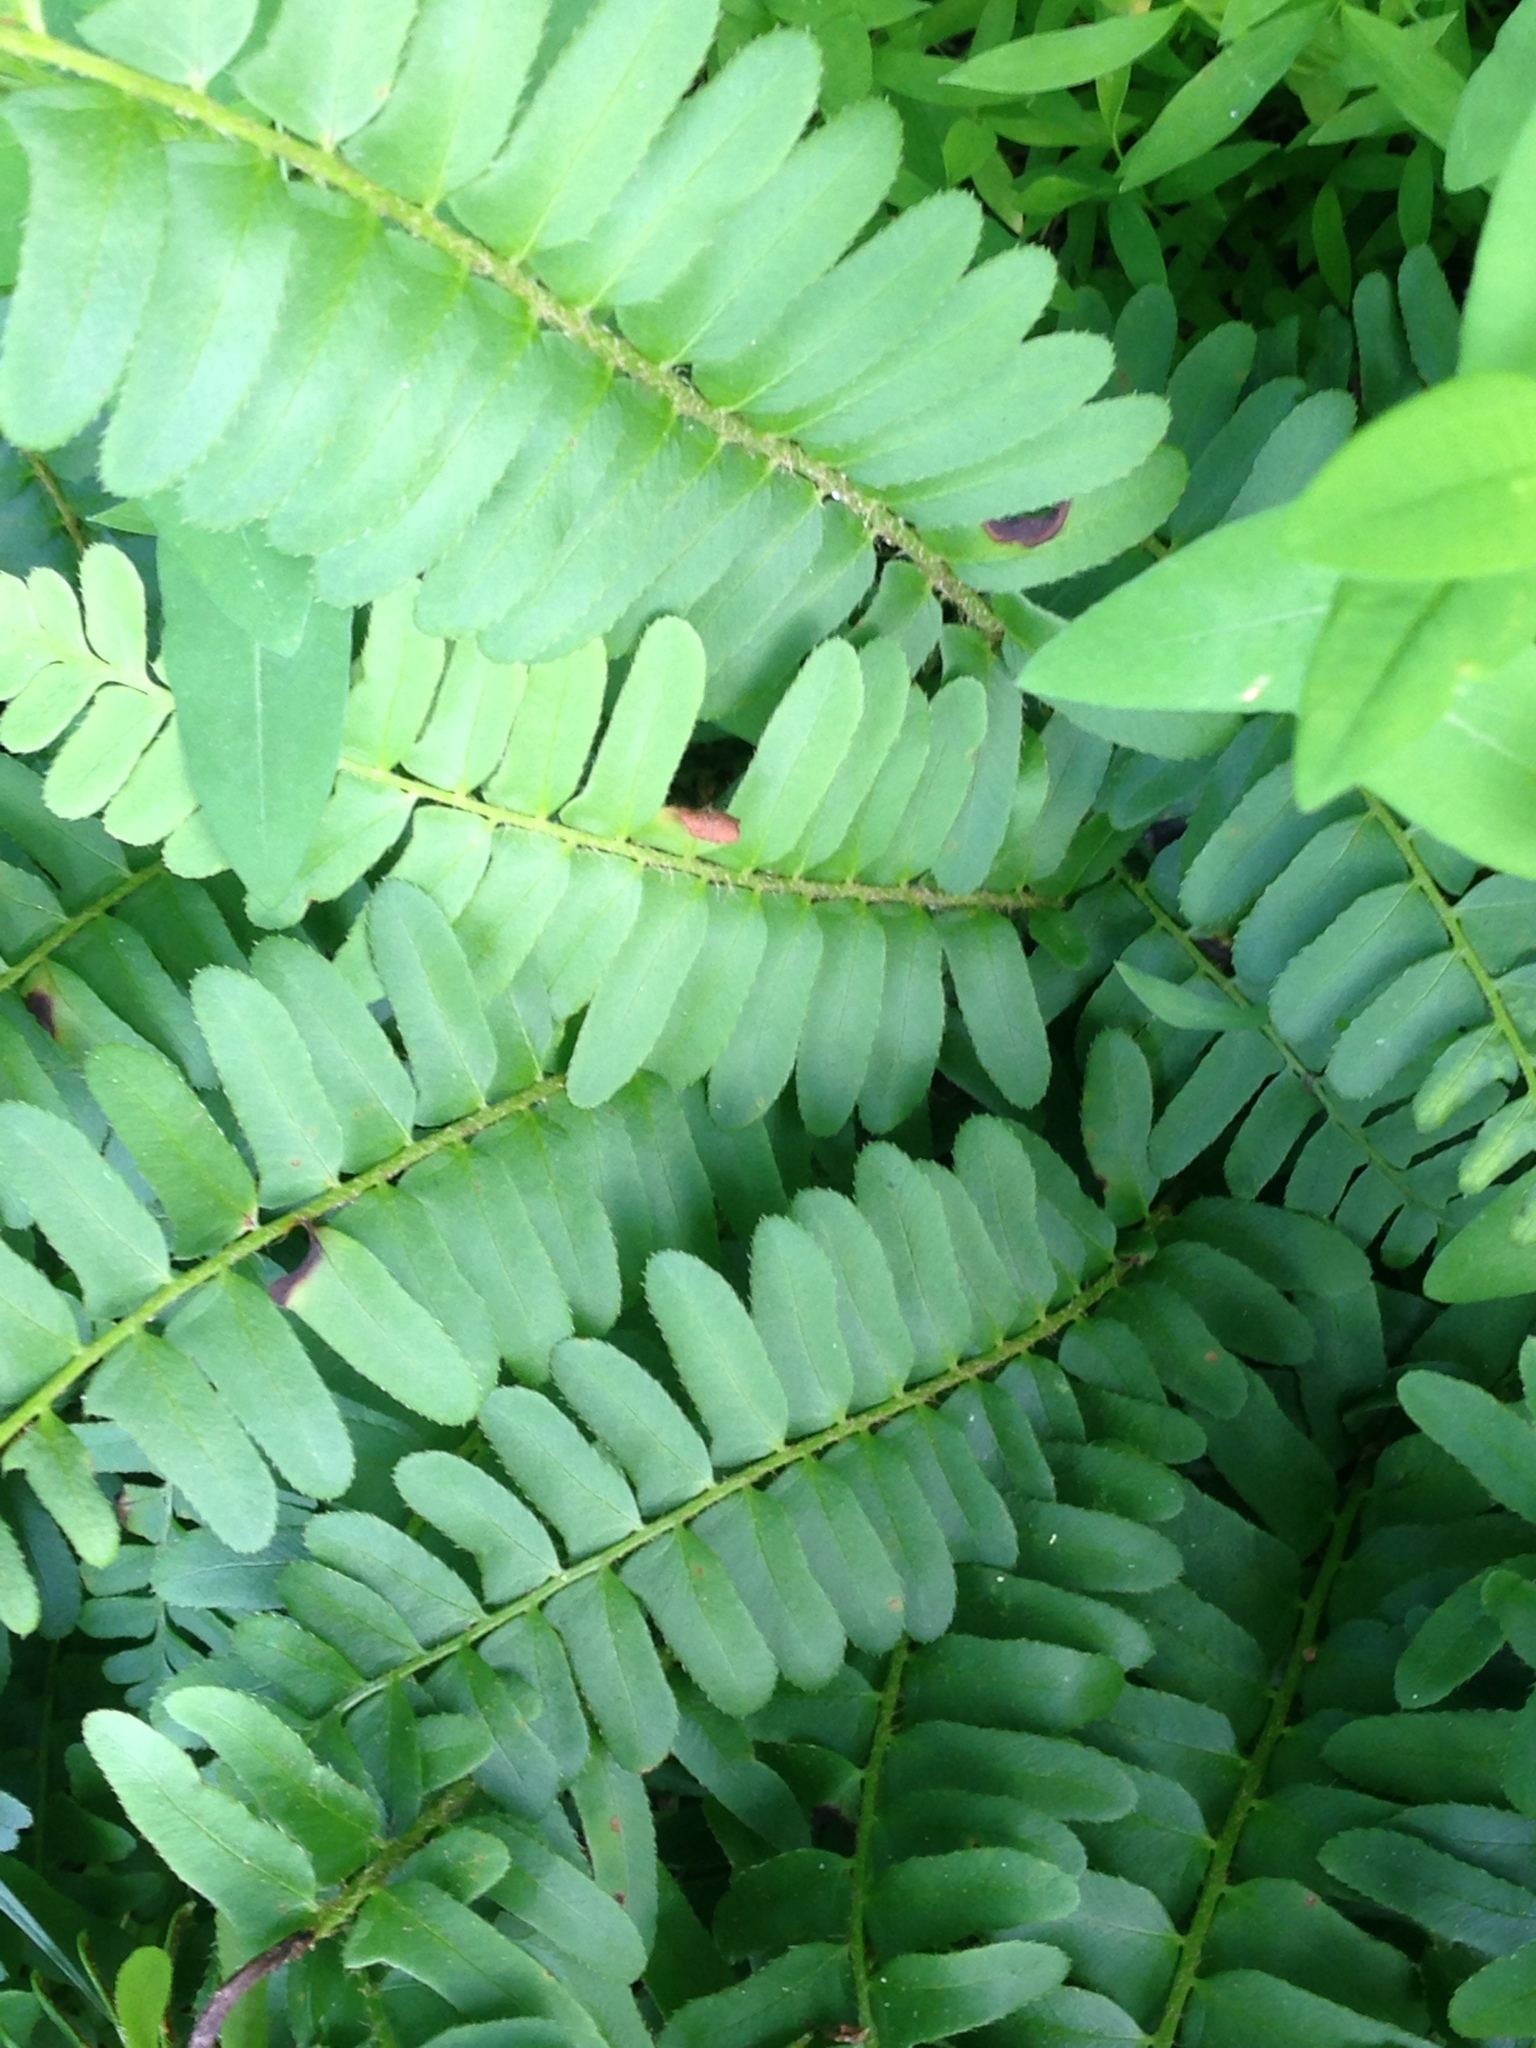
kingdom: Plantae
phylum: Tracheophyta
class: Polypodiopsida
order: Polypodiales
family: Dryopteridaceae
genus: Polystichum
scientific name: Polystichum acrostichoides
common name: Christmas fern
